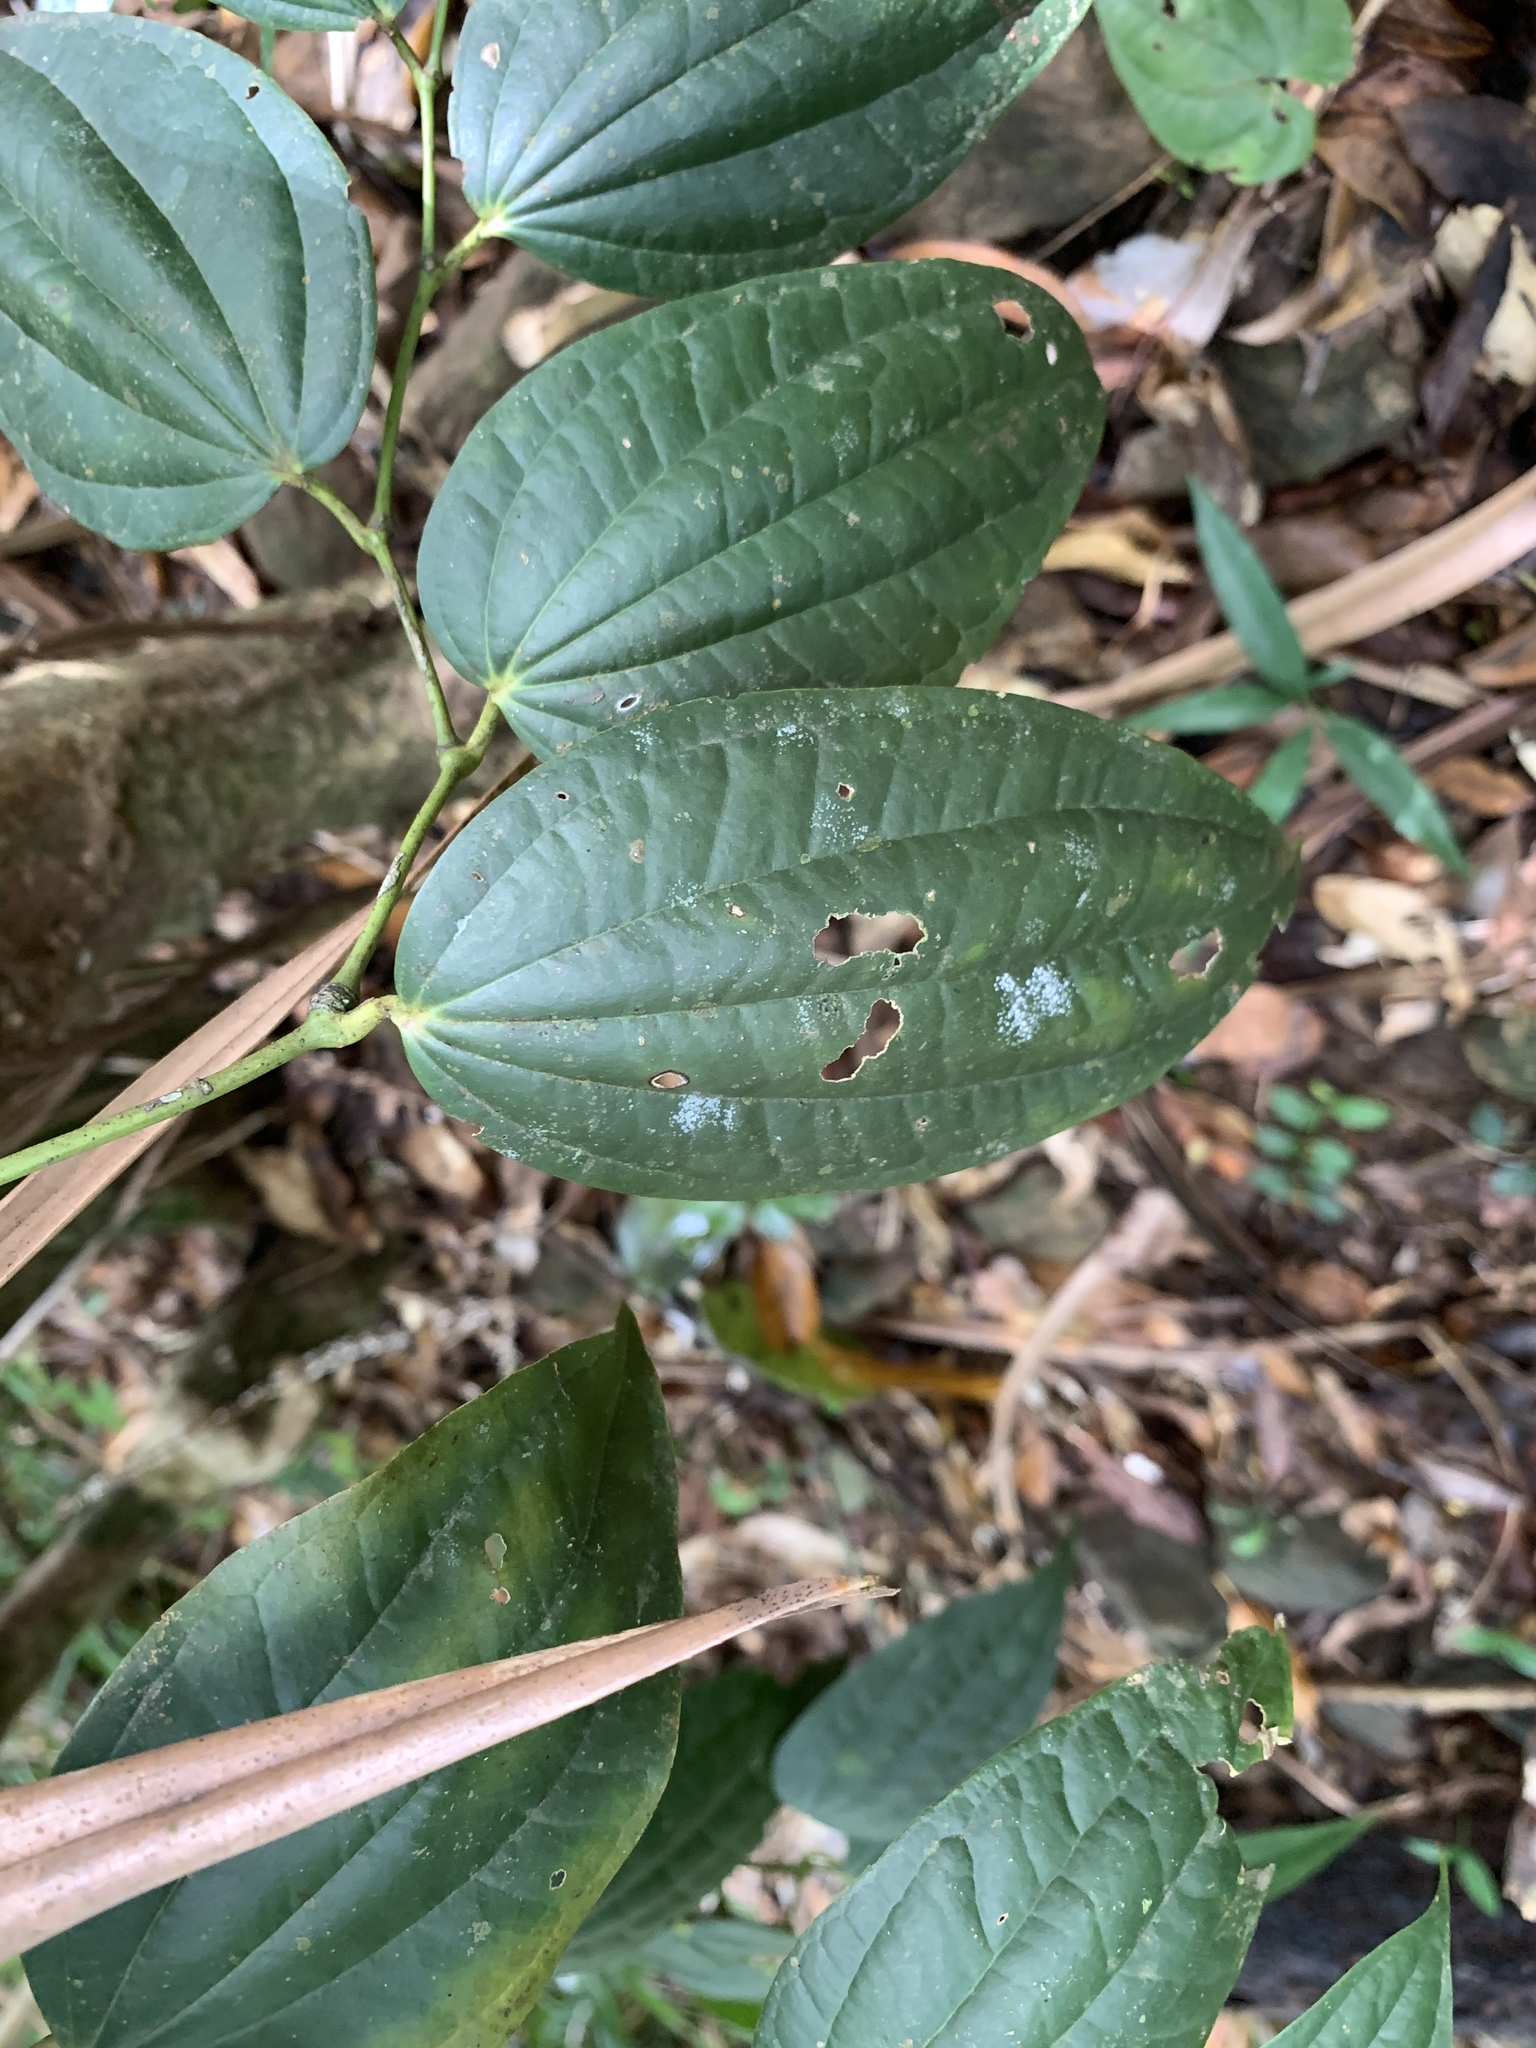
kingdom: Plantae
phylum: Tracheophyta
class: Magnoliopsida
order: Piperales
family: Piperaceae
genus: Piper
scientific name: Piper
